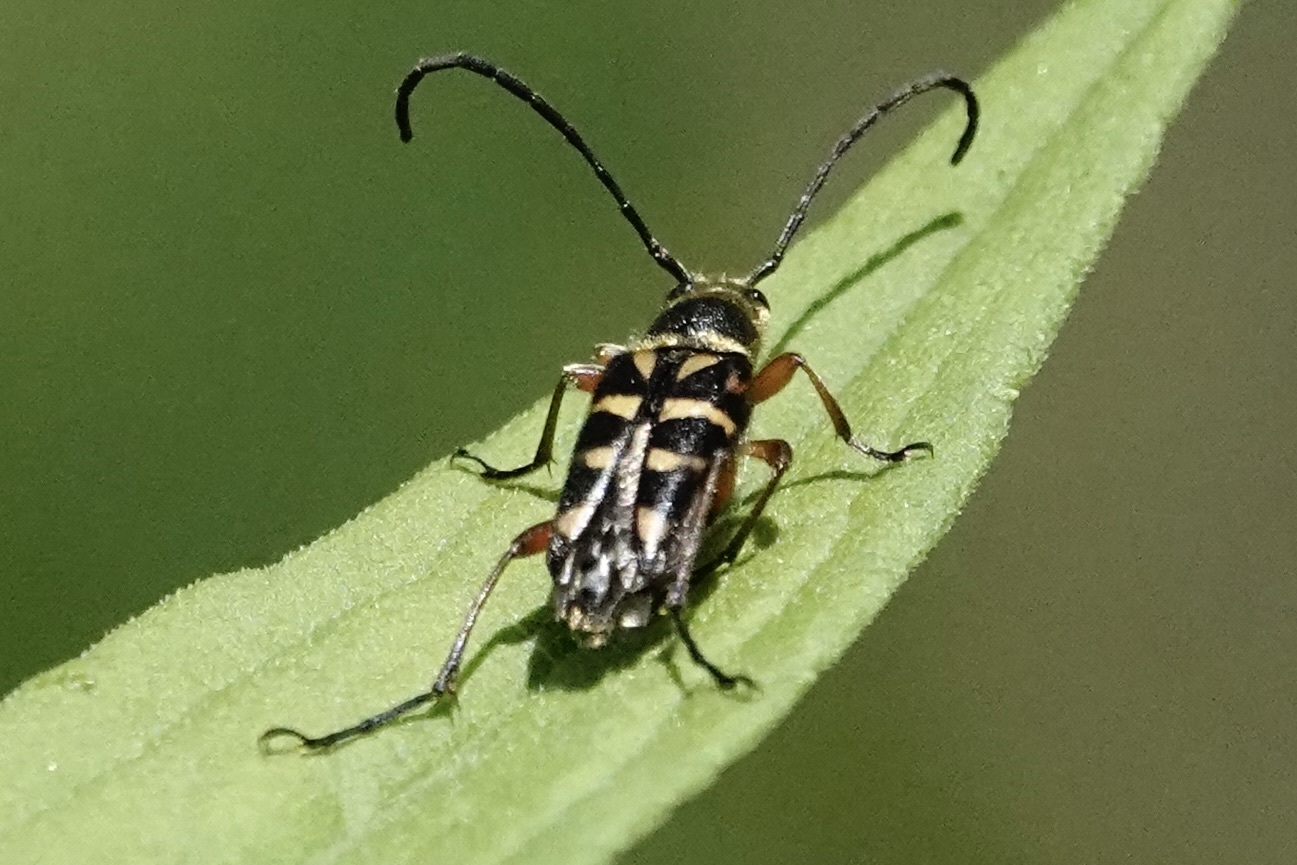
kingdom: Animalia
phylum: Arthropoda
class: Insecta
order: Coleoptera
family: Cerambycidae
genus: Typocerus
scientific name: Typocerus zebra
